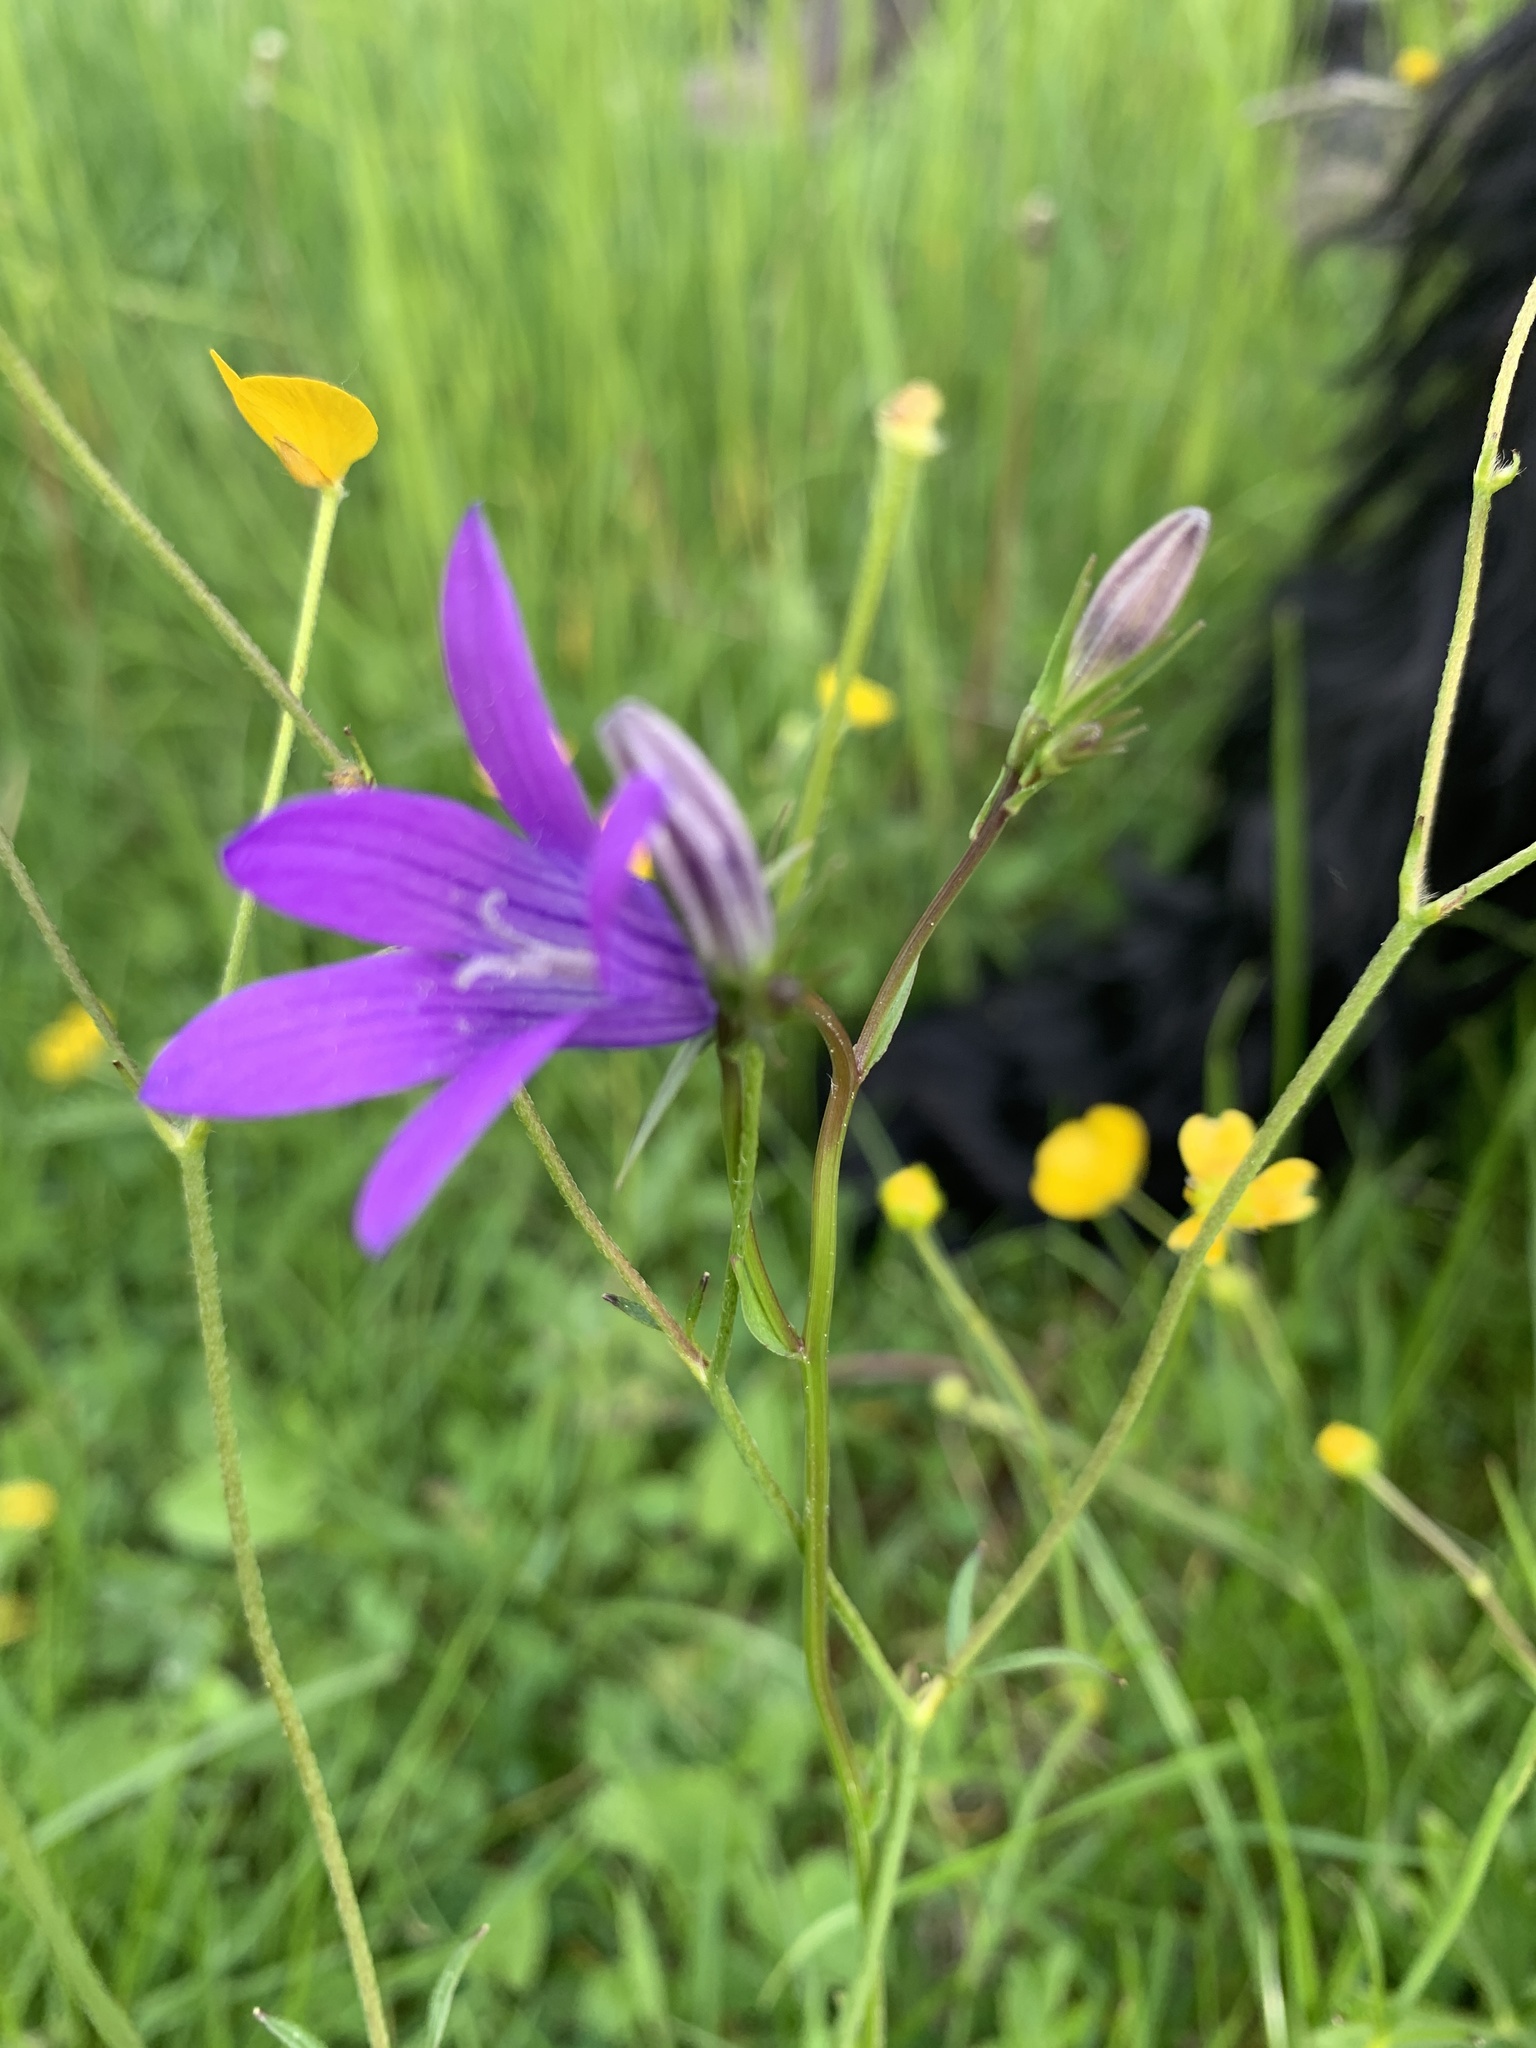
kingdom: Plantae
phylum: Tracheophyta
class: Magnoliopsida
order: Asterales
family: Campanulaceae
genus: Campanula
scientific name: Campanula patula
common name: Spreading bellflower
